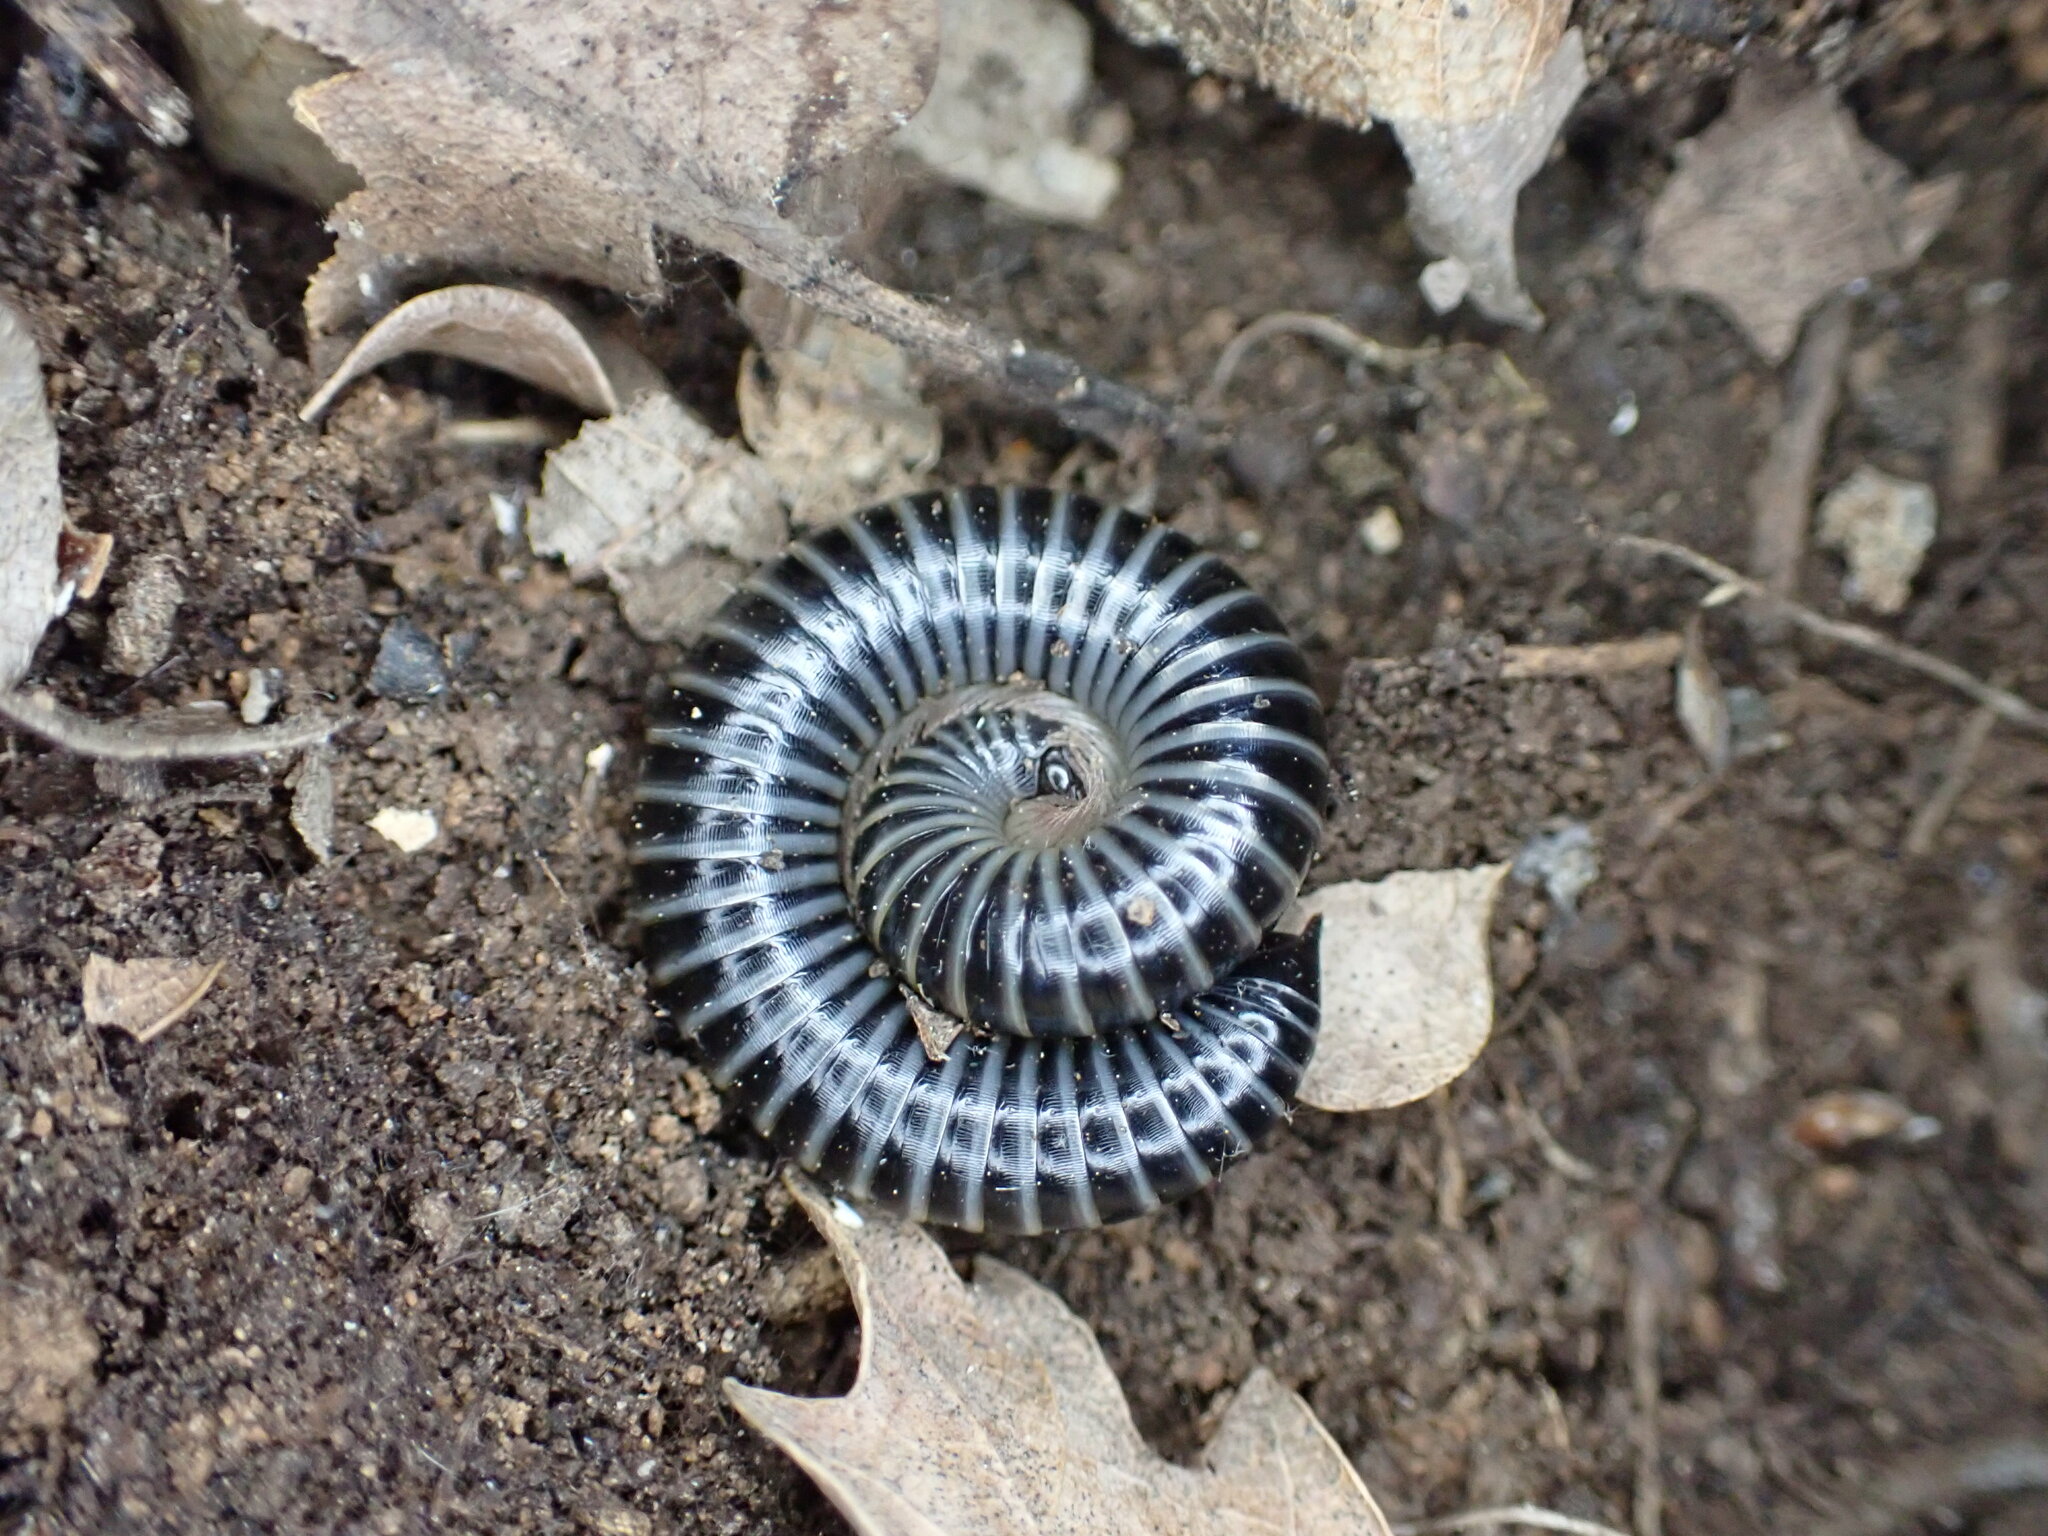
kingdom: Animalia
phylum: Arthropoda
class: Diplopoda
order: Julida
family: Julidae
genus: Ommatoiulus
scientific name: Ommatoiulus sabulosus
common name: Striped millipede
